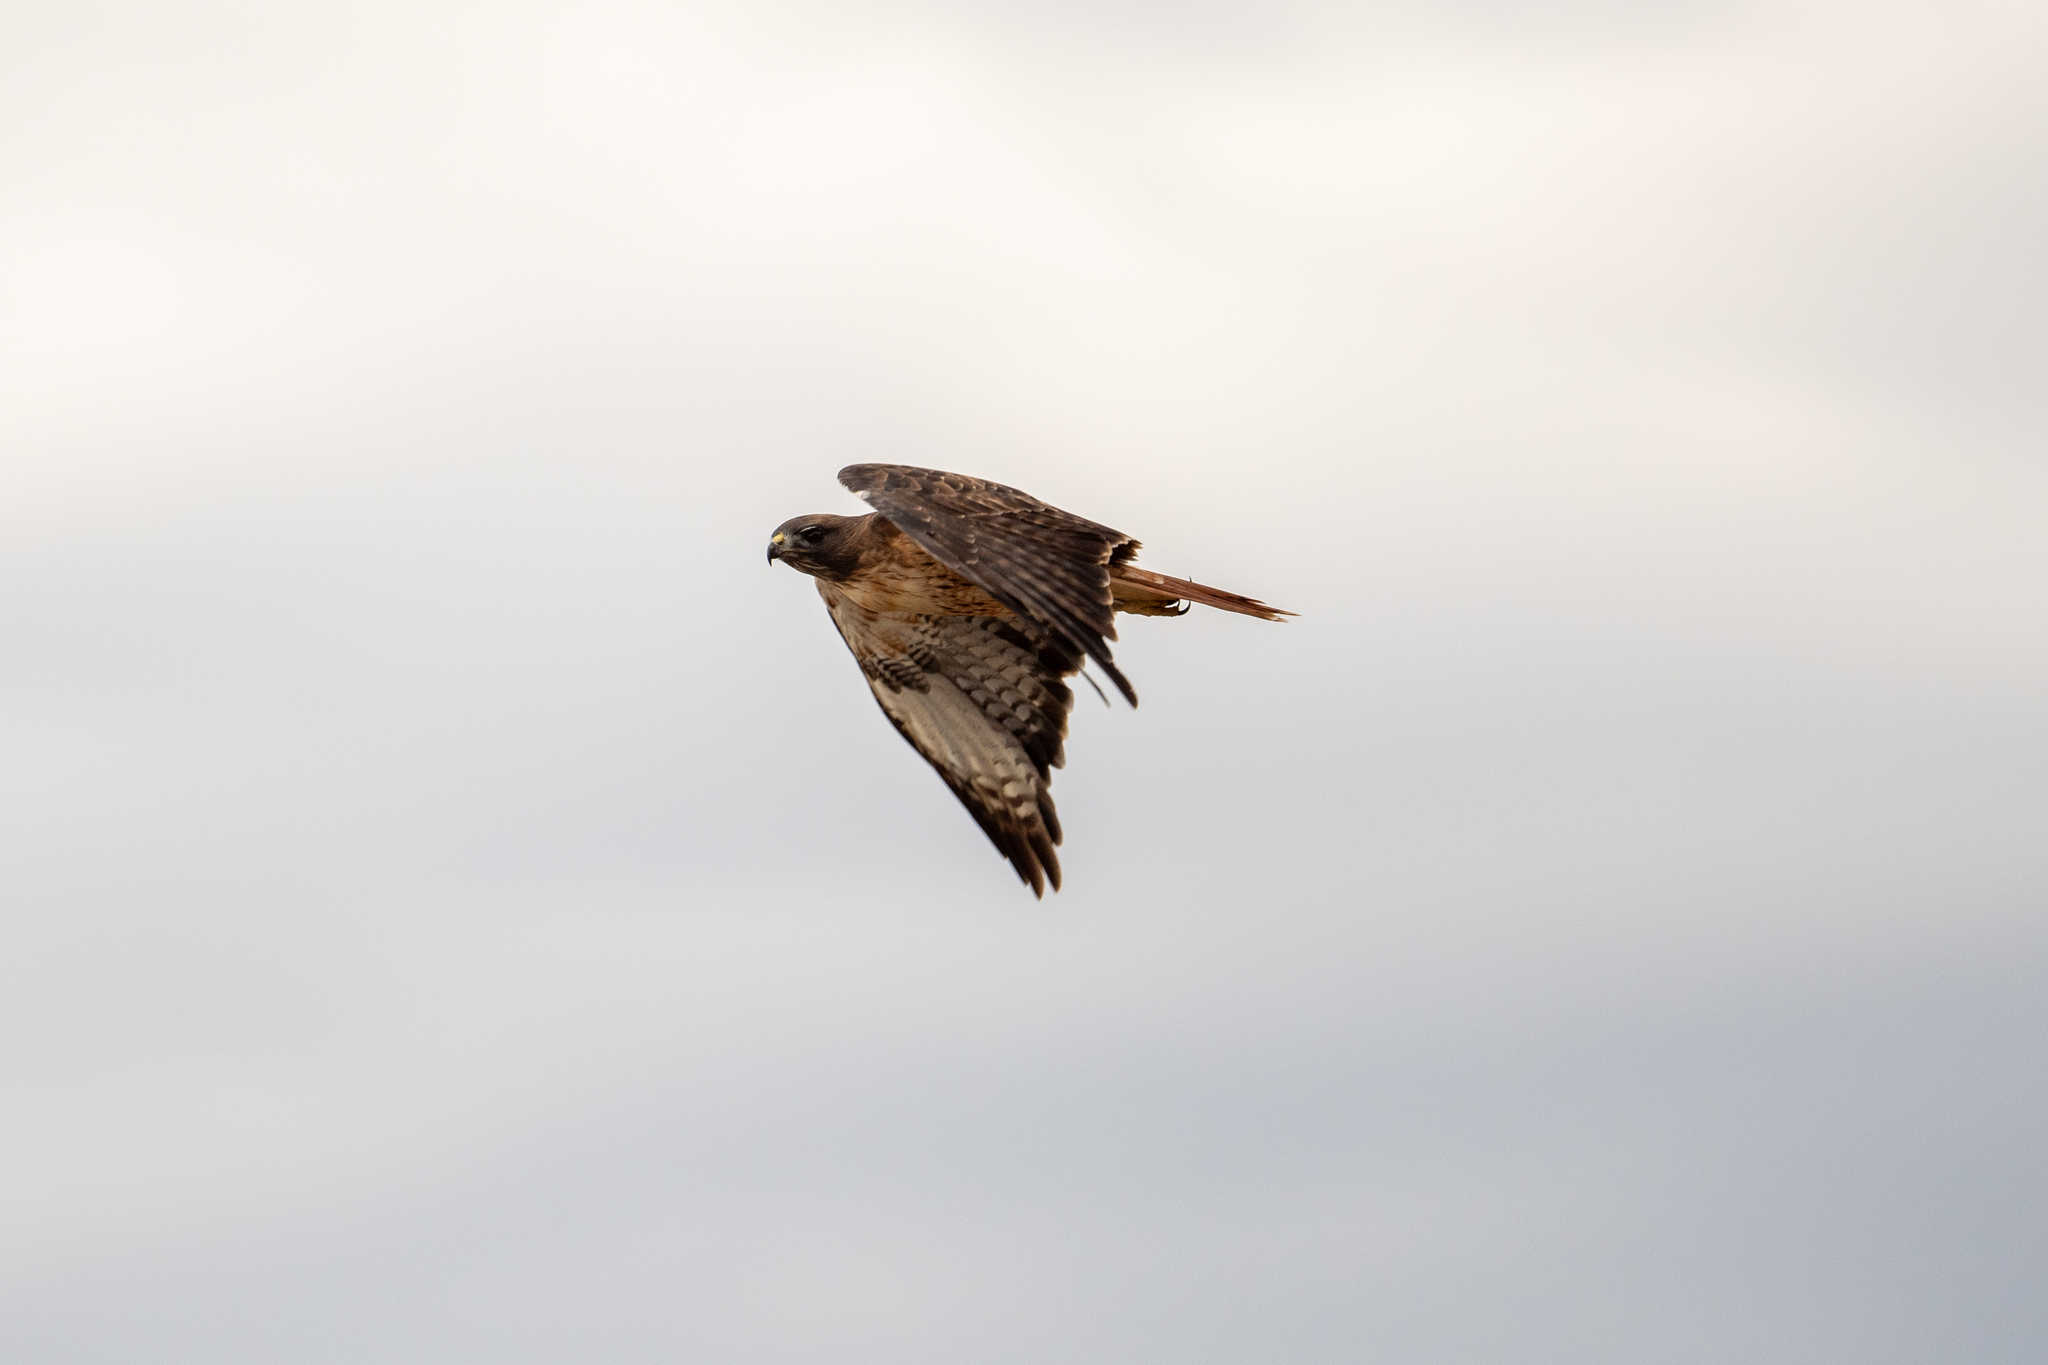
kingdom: Animalia
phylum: Chordata
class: Aves
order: Accipitriformes
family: Accipitridae
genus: Buteo
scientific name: Buteo jamaicensis
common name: Red-tailed hawk
